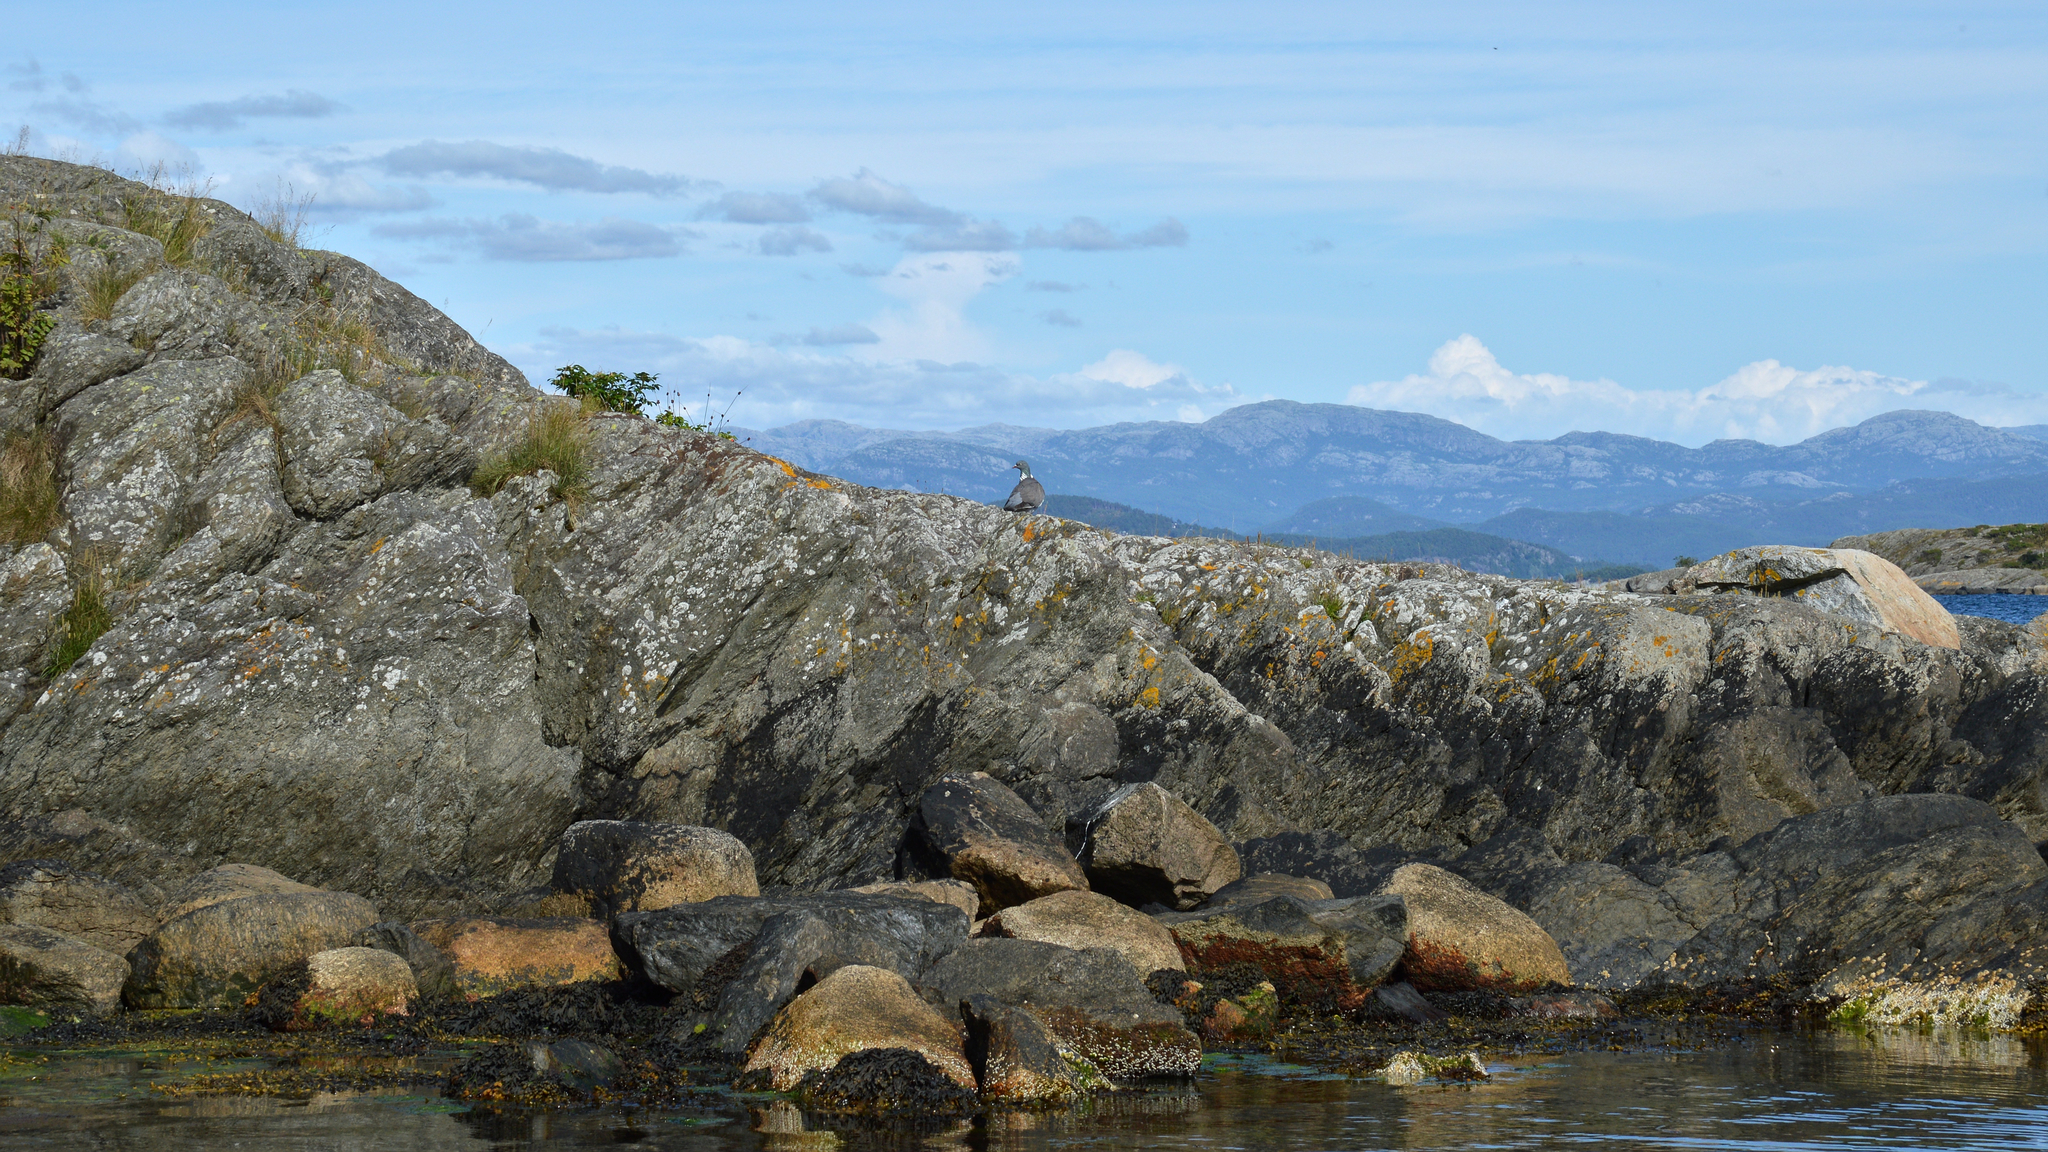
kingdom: Animalia
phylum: Chordata
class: Aves
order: Columbiformes
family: Columbidae
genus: Columba
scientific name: Columba palumbus
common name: Common wood pigeon
